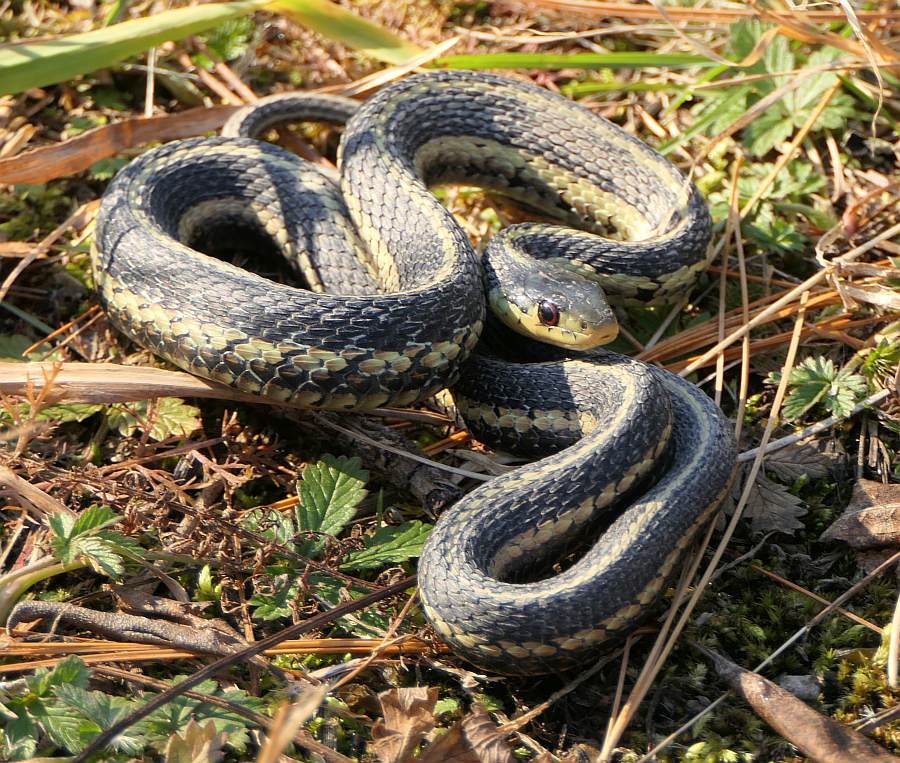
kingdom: Animalia
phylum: Chordata
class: Squamata
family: Colubridae
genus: Thamnophis
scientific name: Thamnophis sirtalis
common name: Common garter snake
